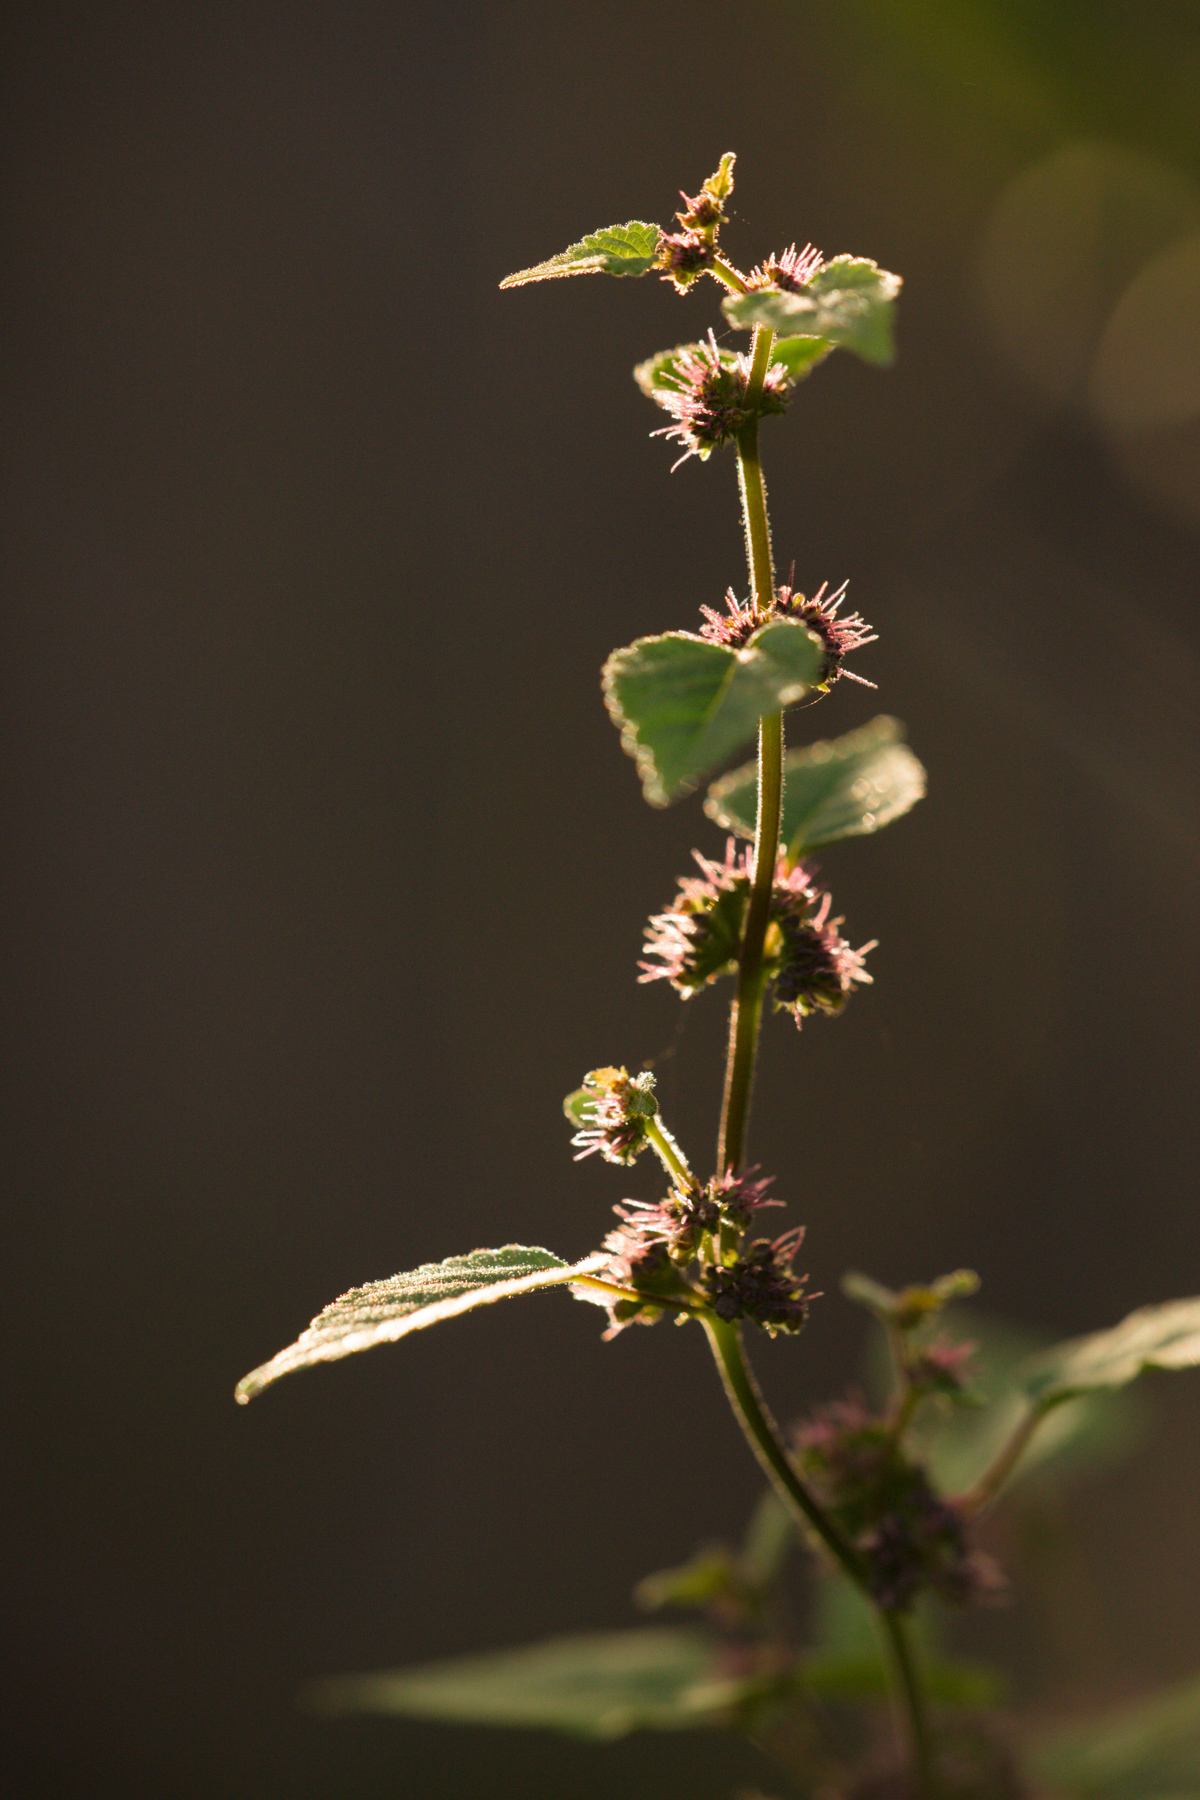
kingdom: Plantae
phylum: Tracheophyta
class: Magnoliopsida
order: Rosales
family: Moraceae
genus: Fatoua
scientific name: Fatoua villosa
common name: Hairy crabweed
